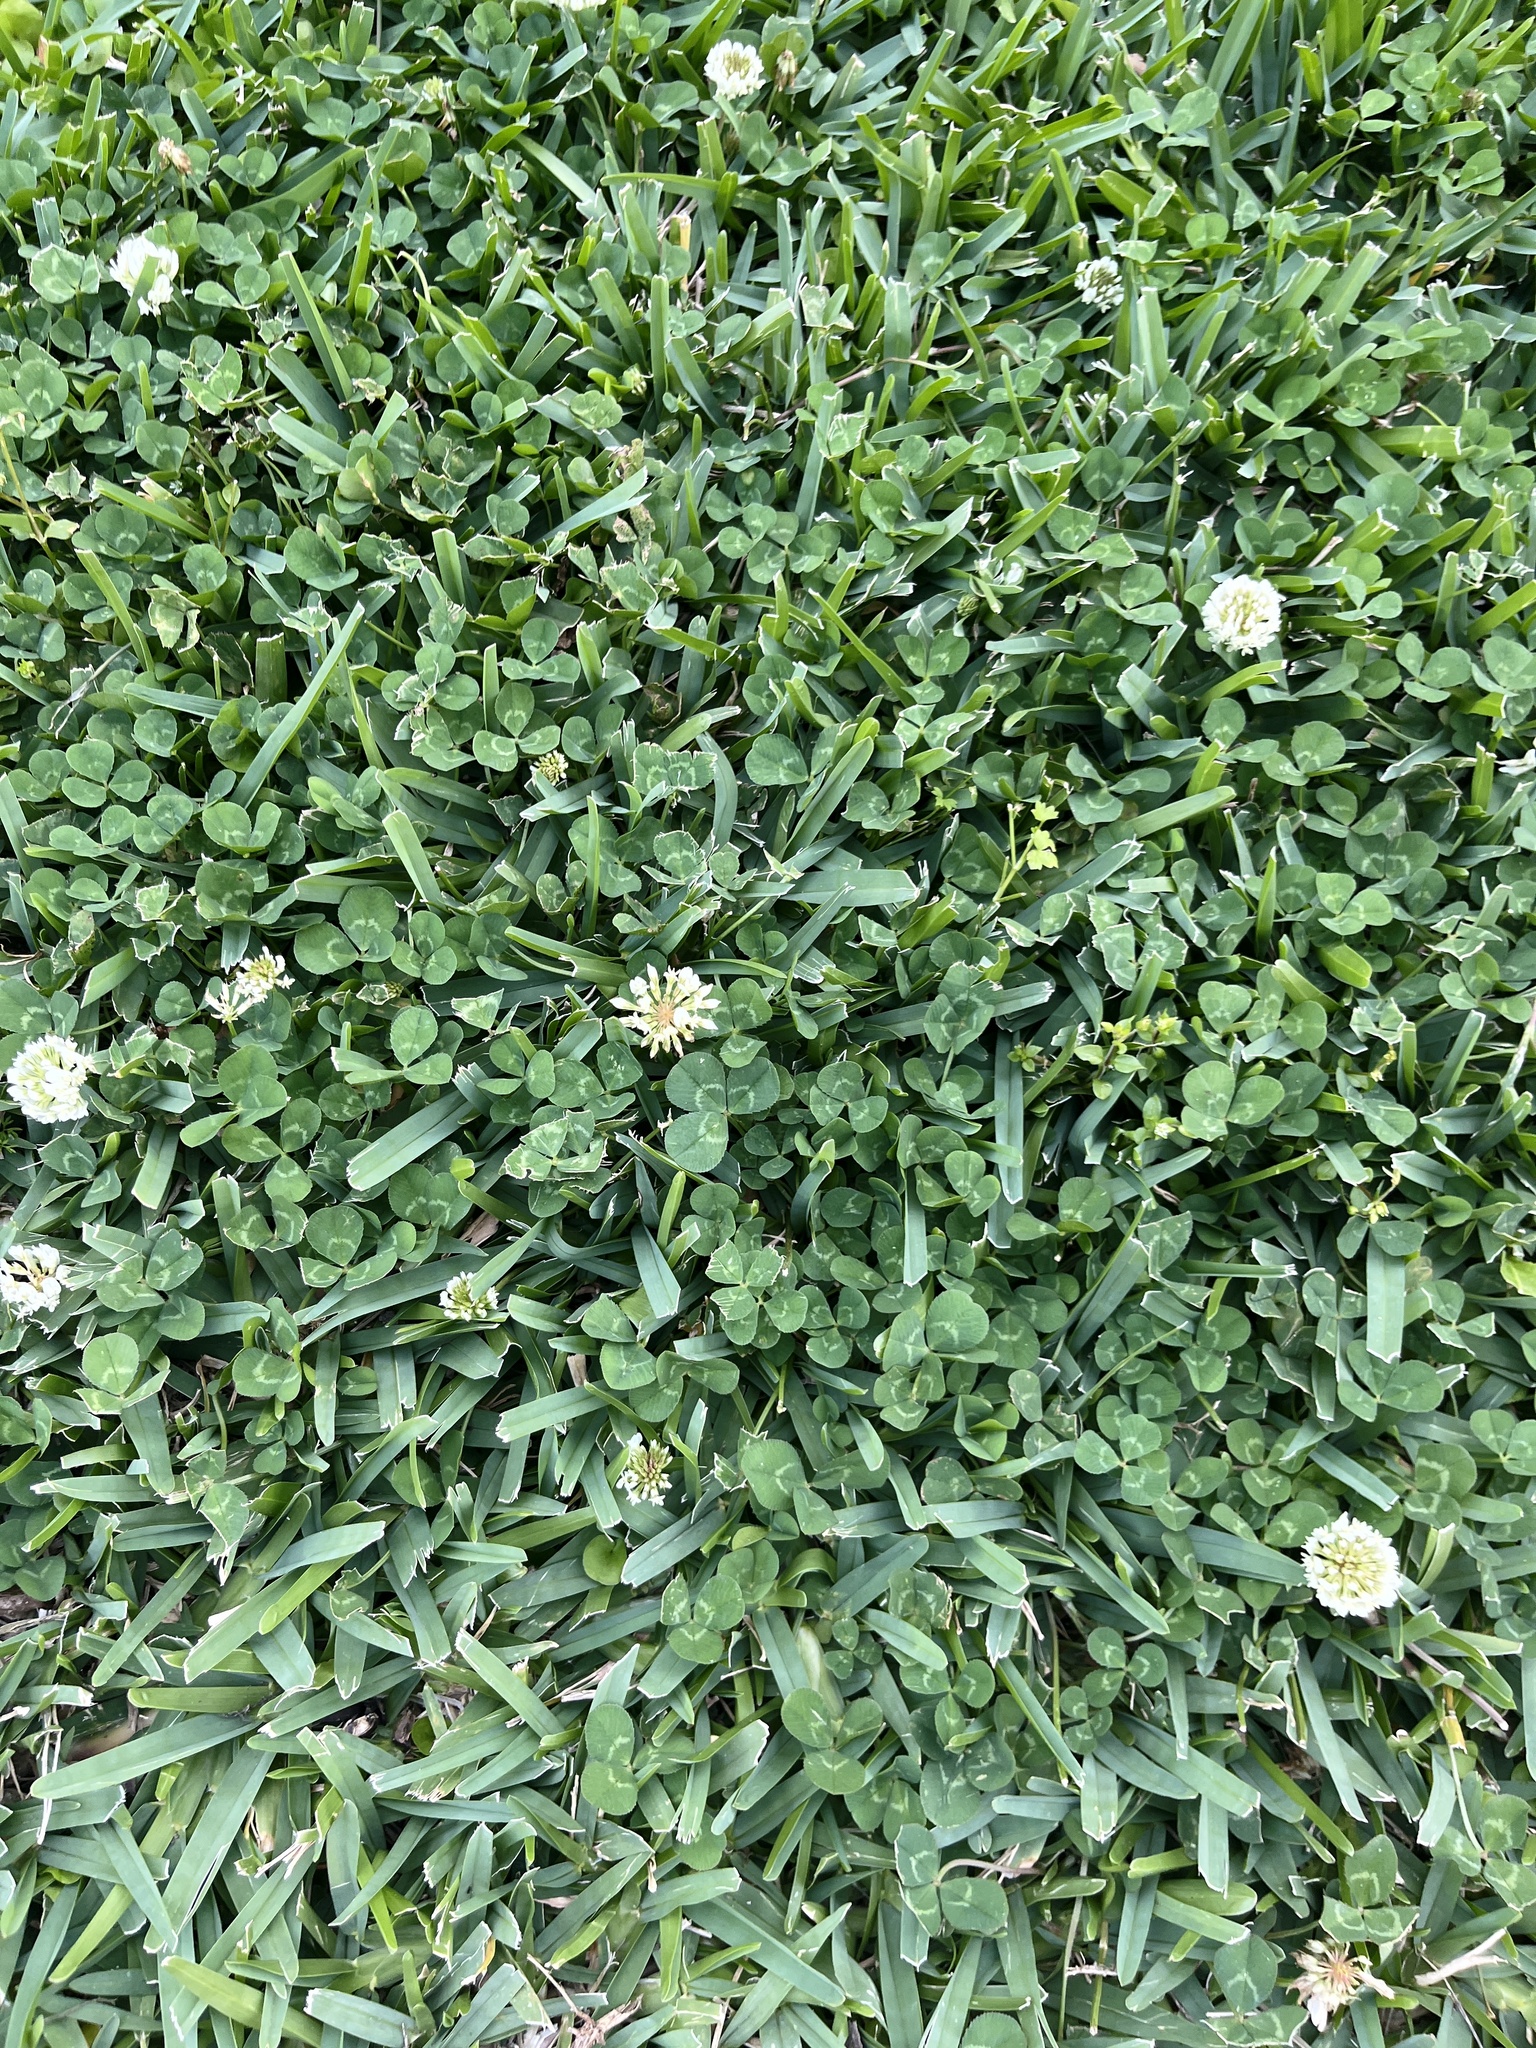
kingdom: Plantae
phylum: Tracheophyta
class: Magnoliopsida
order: Fabales
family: Fabaceae
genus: Trifolium
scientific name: Trifolium repens
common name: White clover
